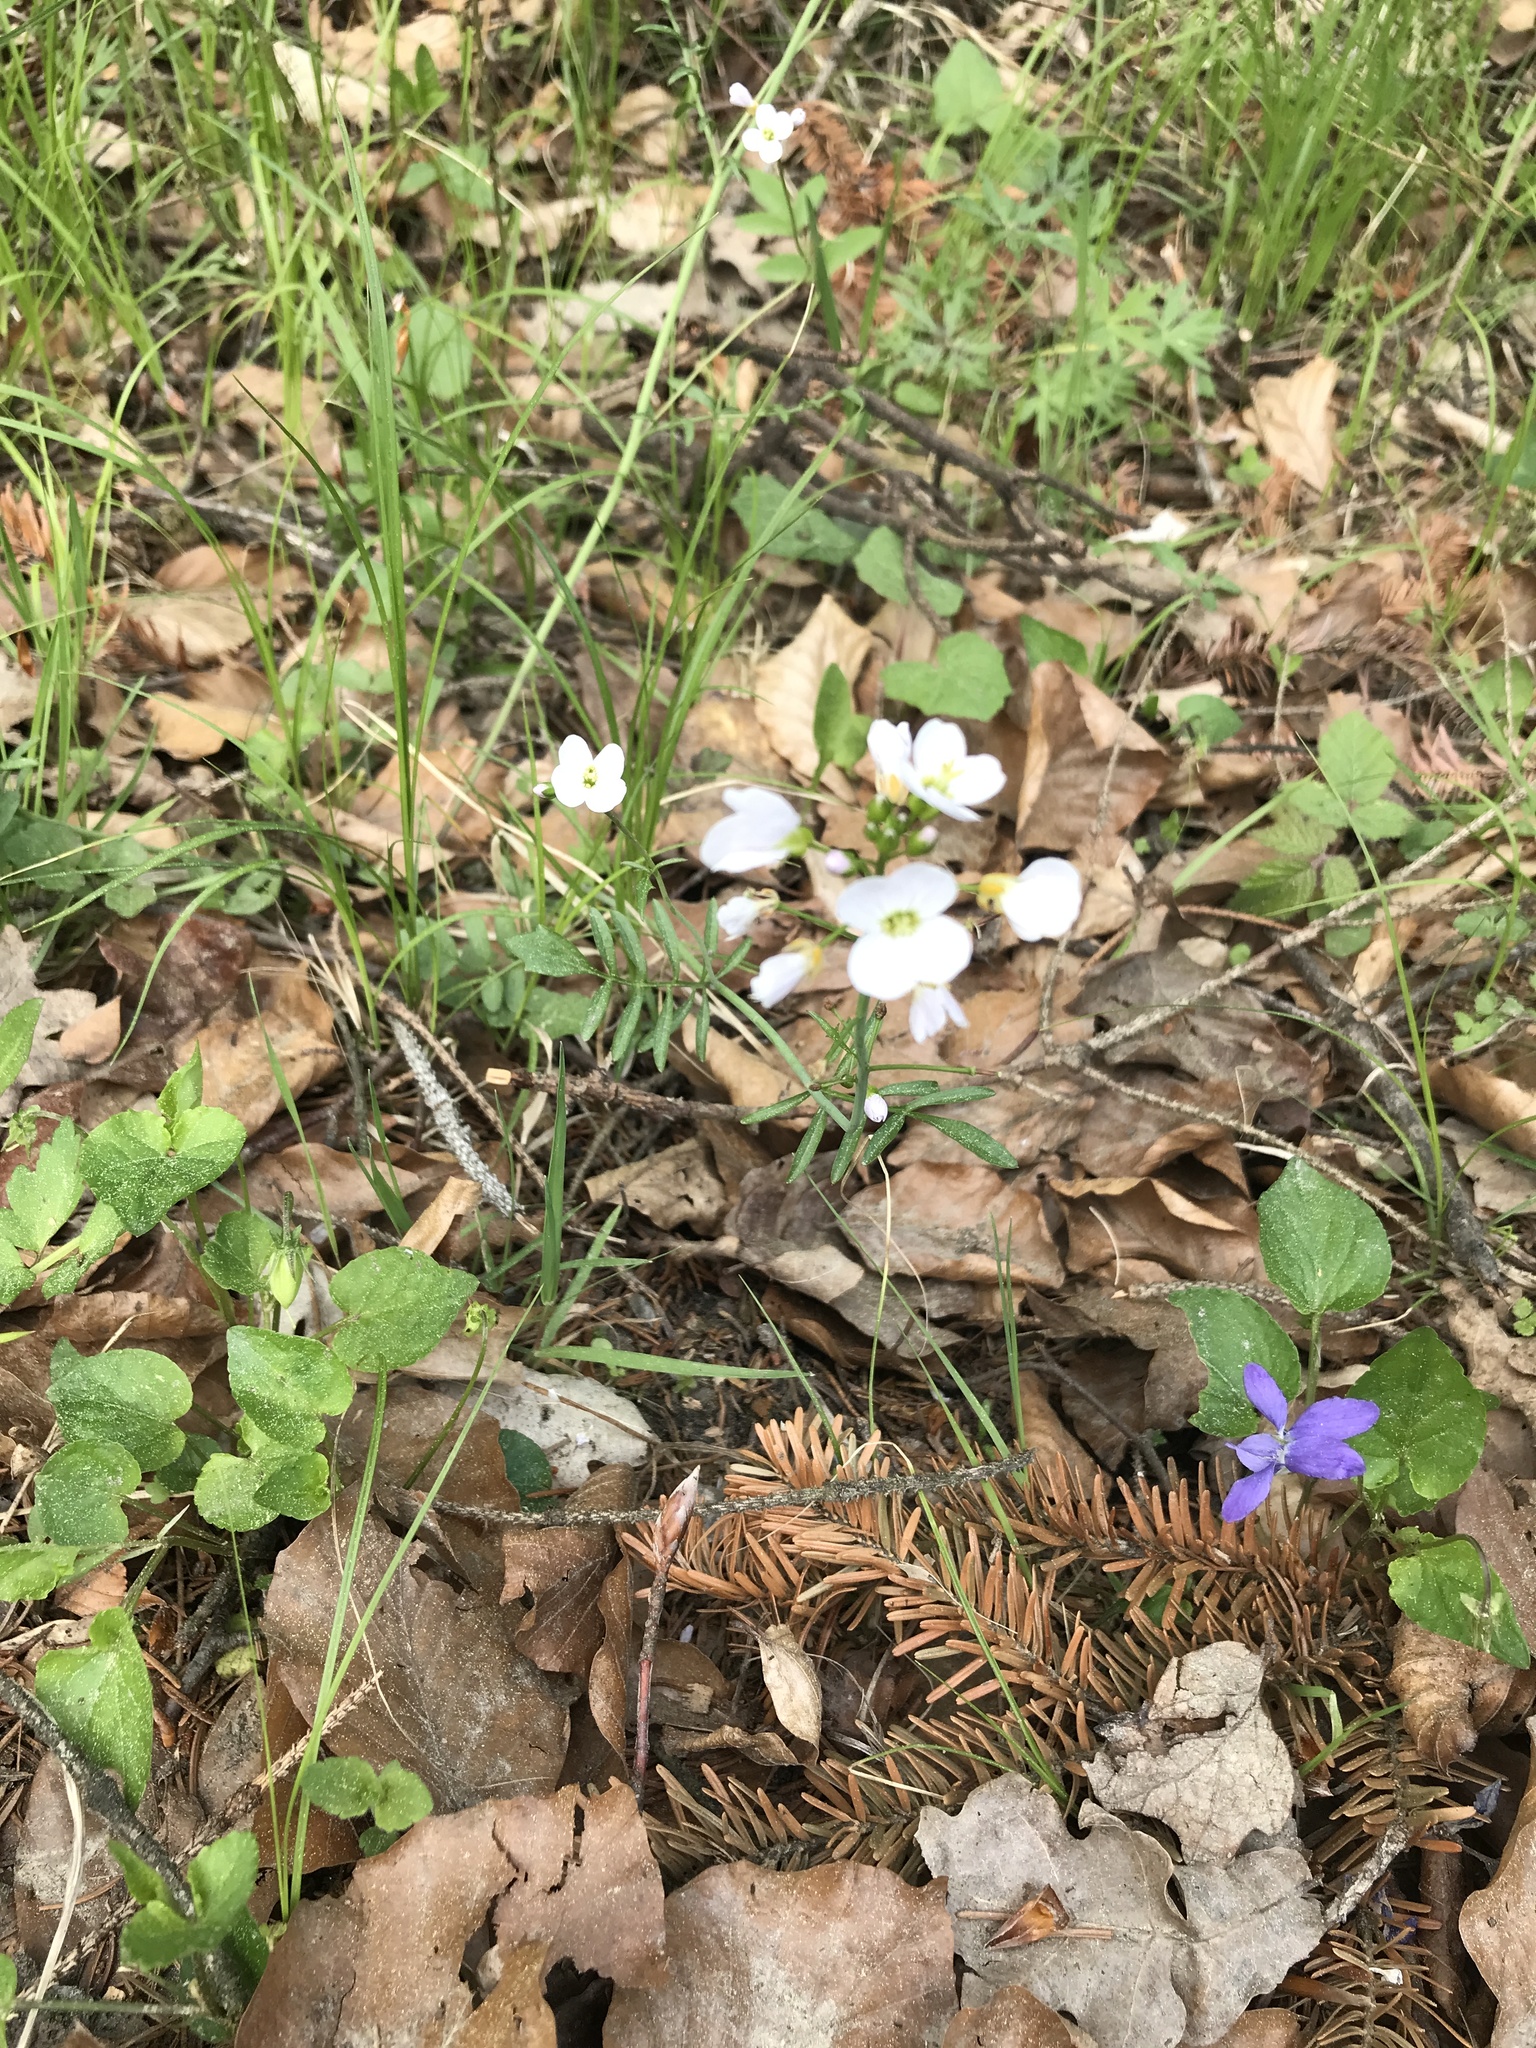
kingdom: Plantae
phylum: Tracheophyta
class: Magnoliopsida
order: Brassicales
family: Brassicaceae
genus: Cardamine
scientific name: Cardamine pratensis
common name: Cuckoo flower
